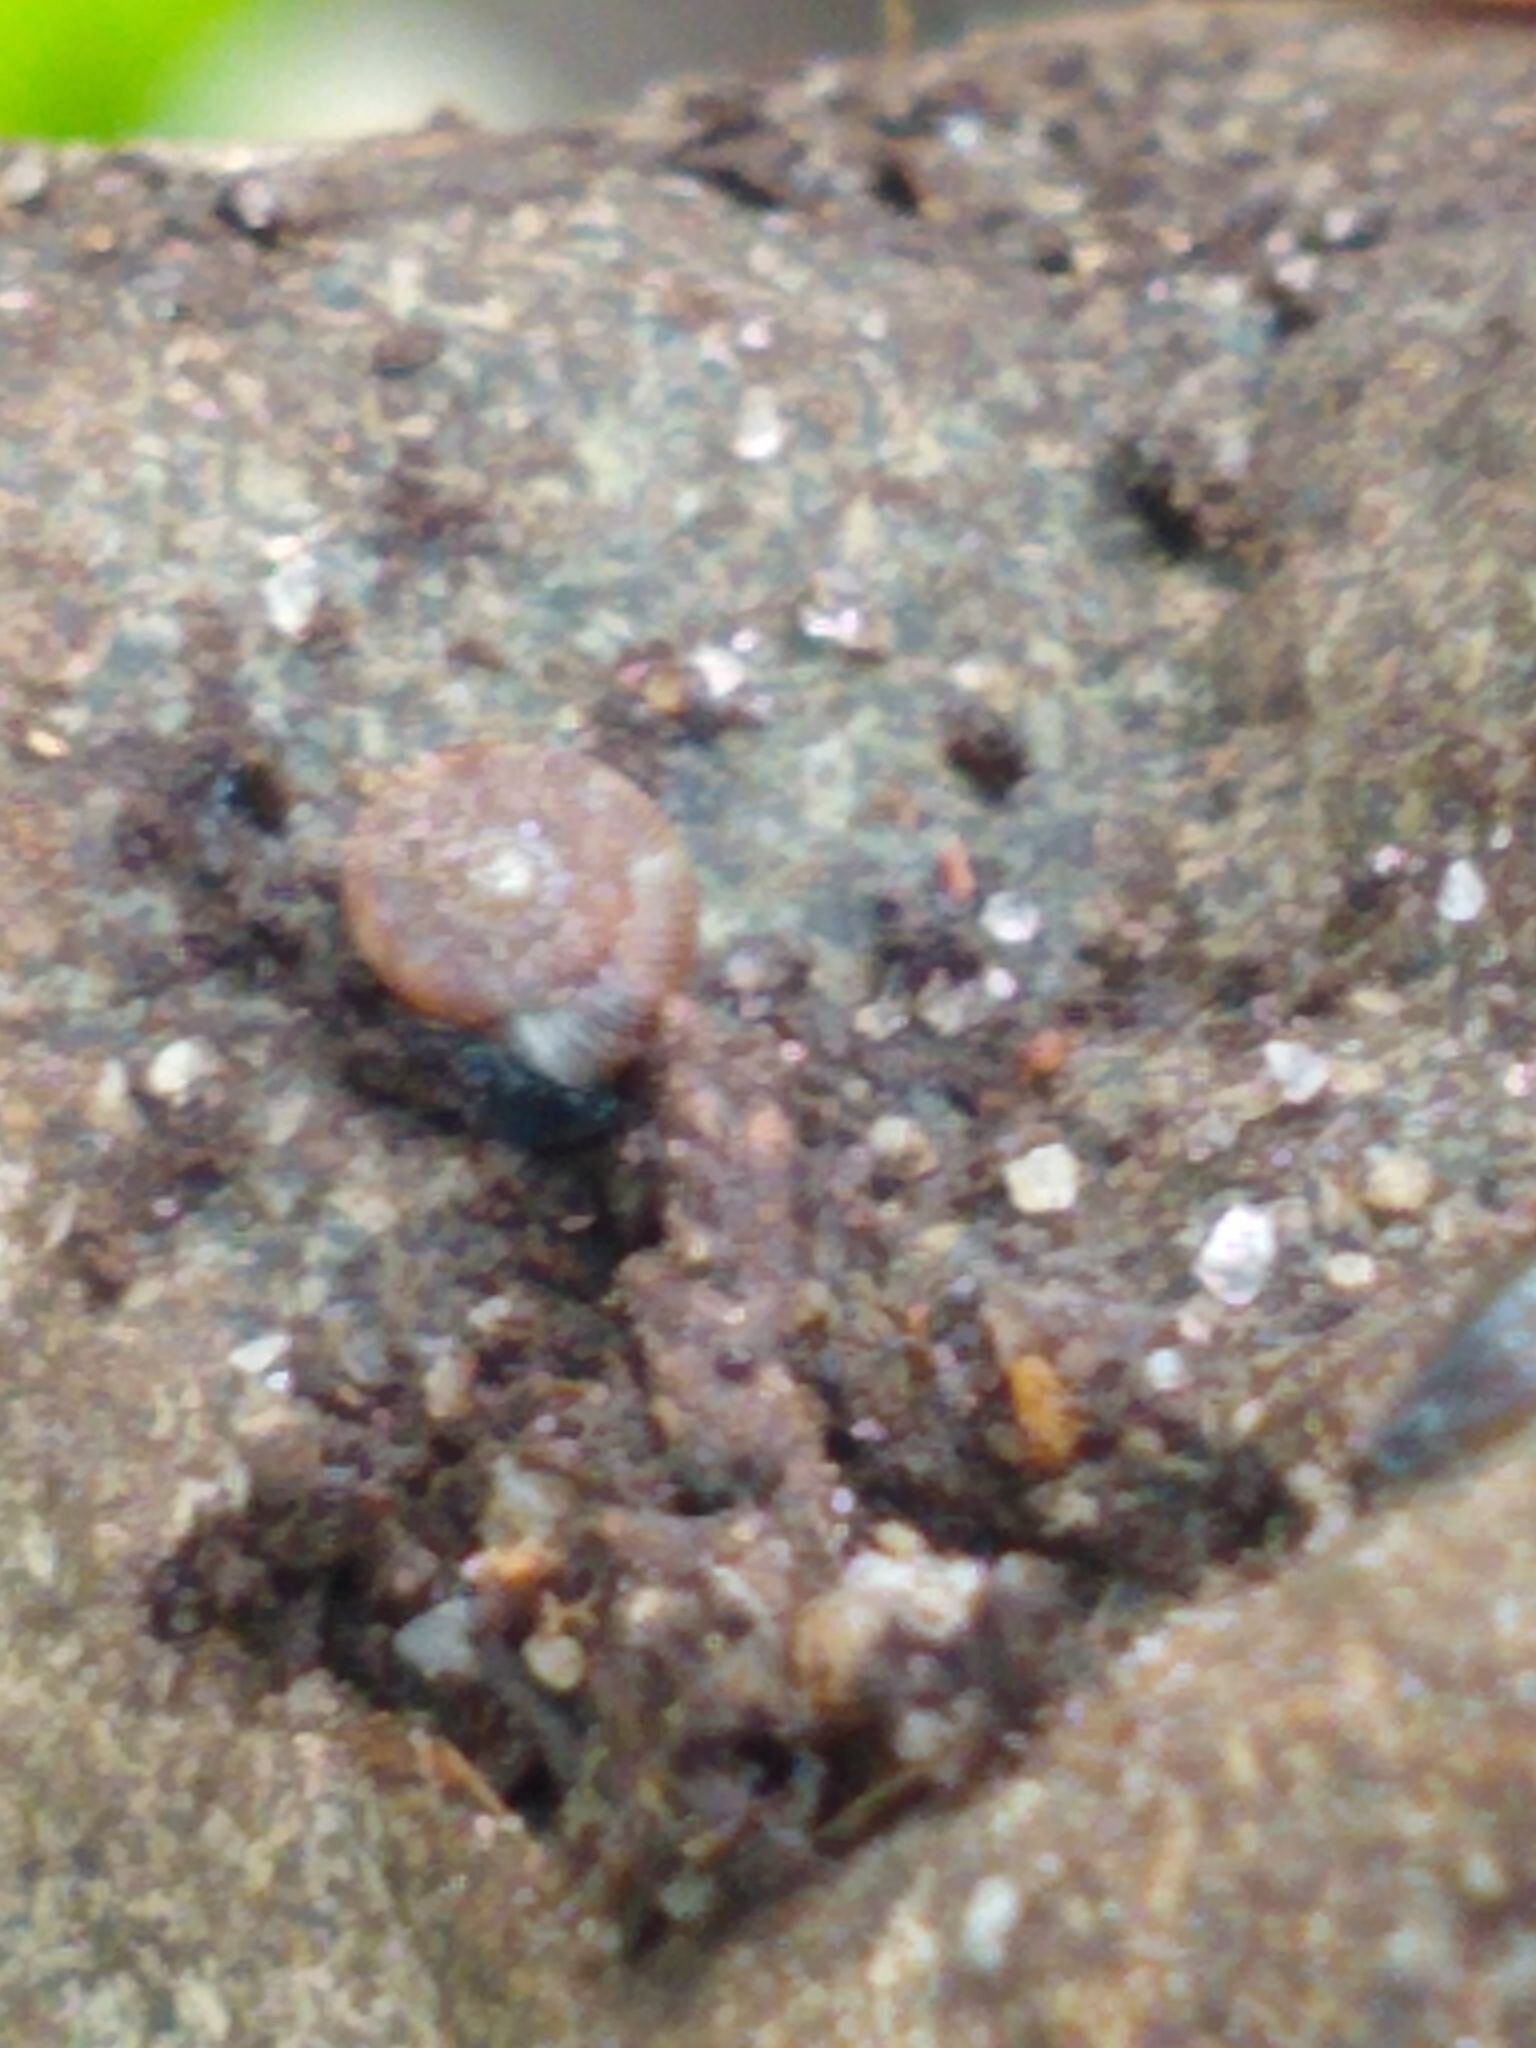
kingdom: Animalia
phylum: Mollusca
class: Gastropoda
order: Stylommatophora
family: Discidae
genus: Discus
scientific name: Discus rotundatus
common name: Rounded snail
